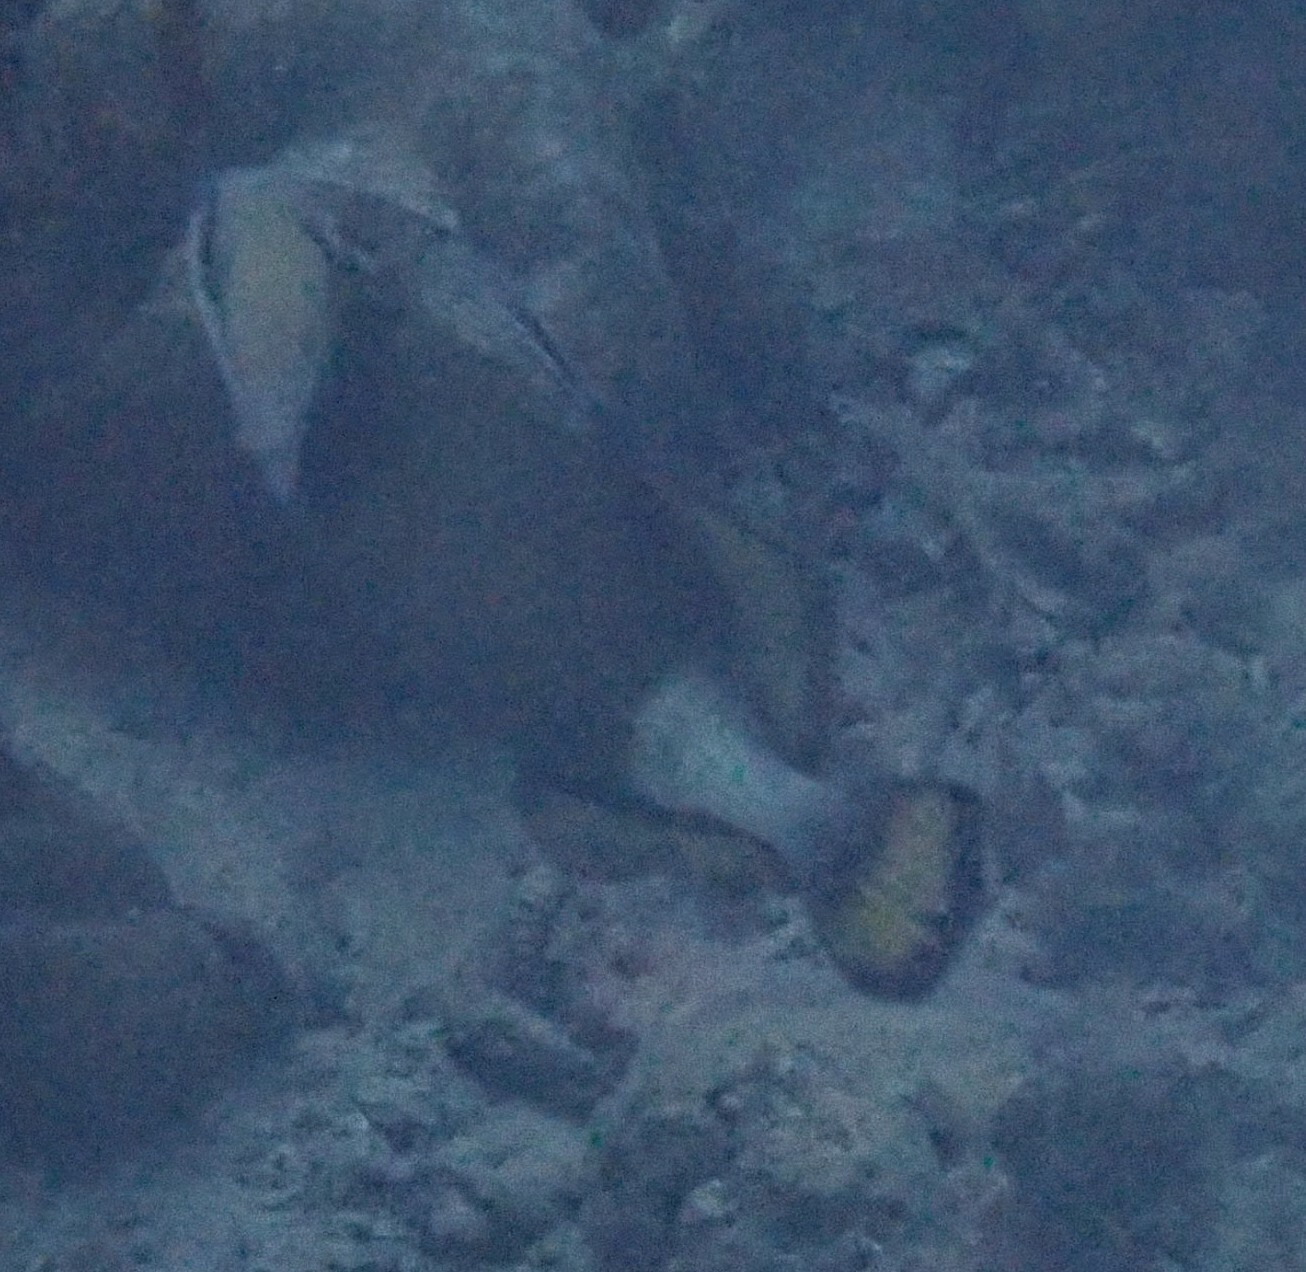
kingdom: Animalia
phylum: Chordata
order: Tetraodontiformes
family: Balistidae
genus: Balistoides
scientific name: Balistoides viridescens
